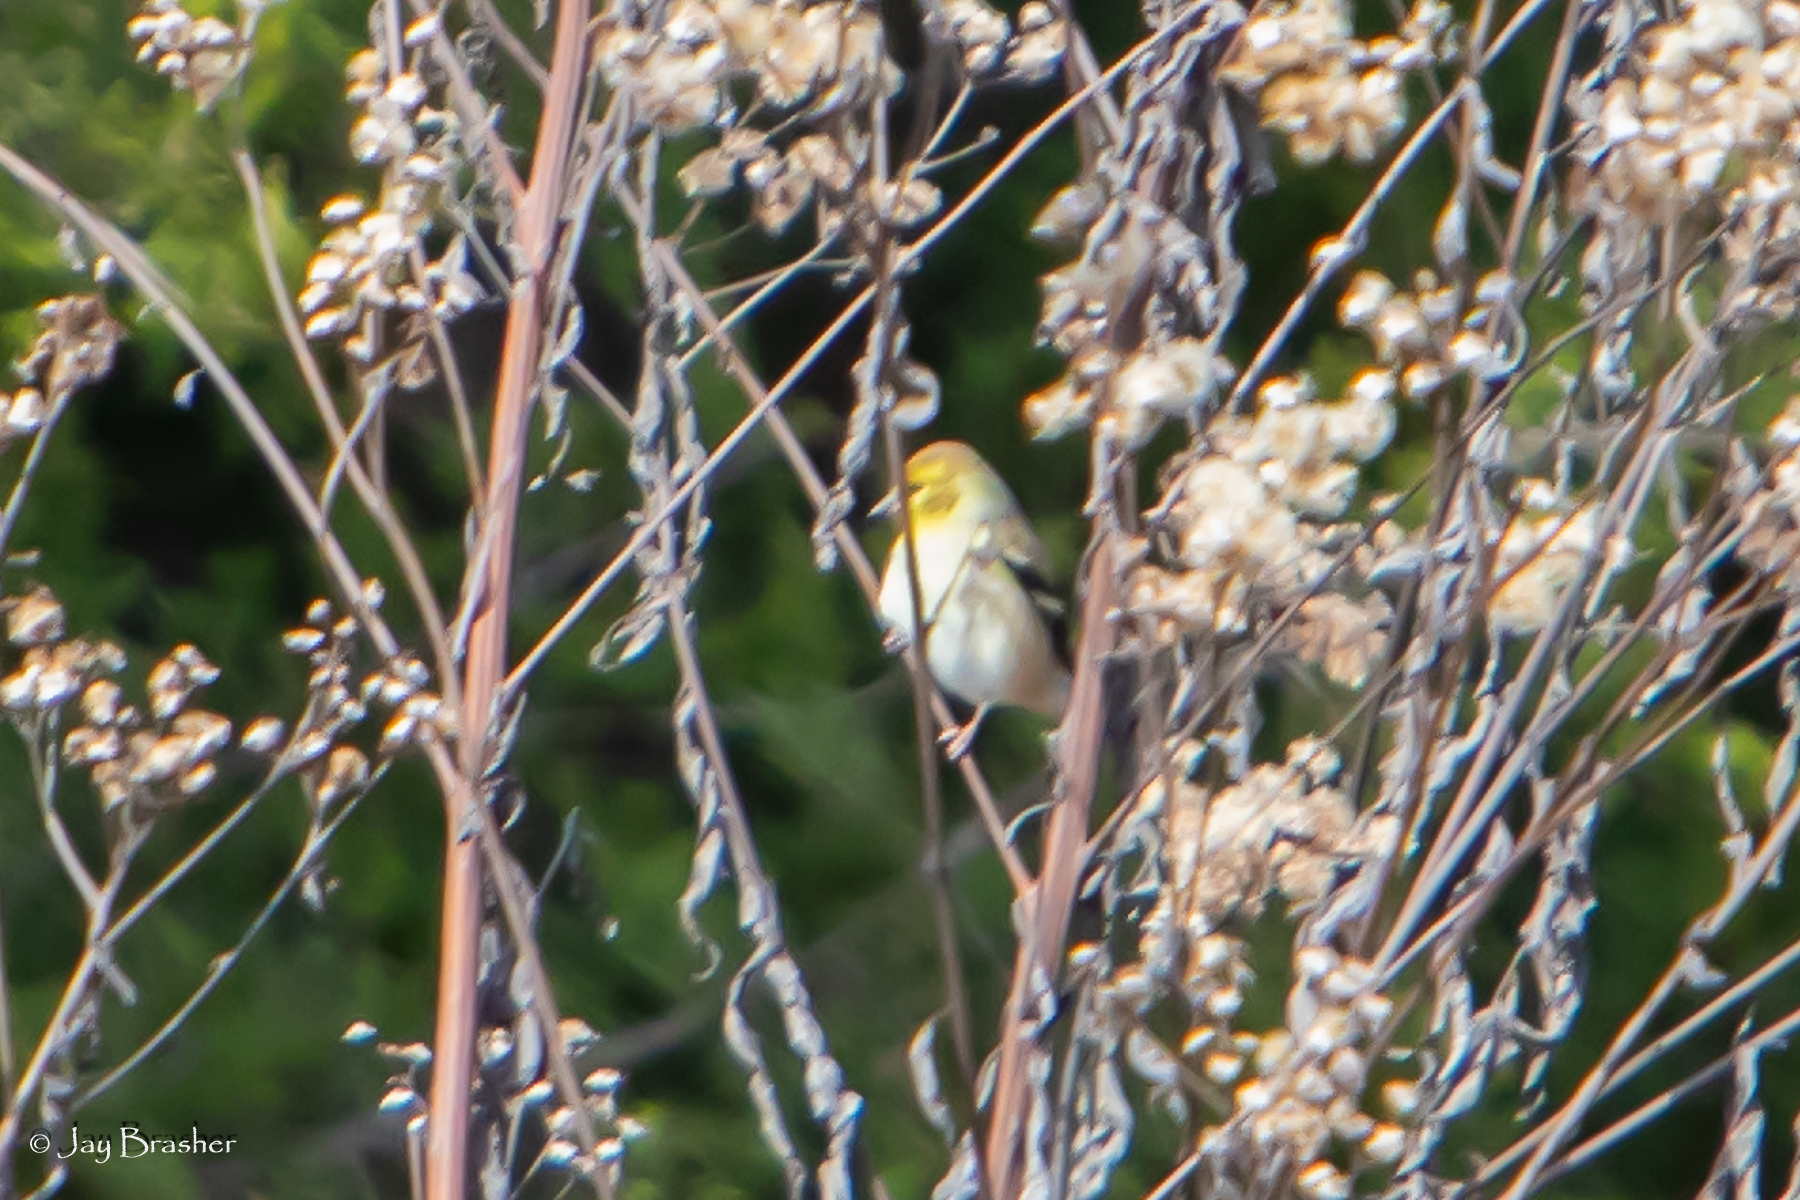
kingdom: Animalia
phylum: Chordata
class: Aves
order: Passeriformes
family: Fringillidae
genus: Spinus
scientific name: Spinus tristis
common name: American goldfinch
